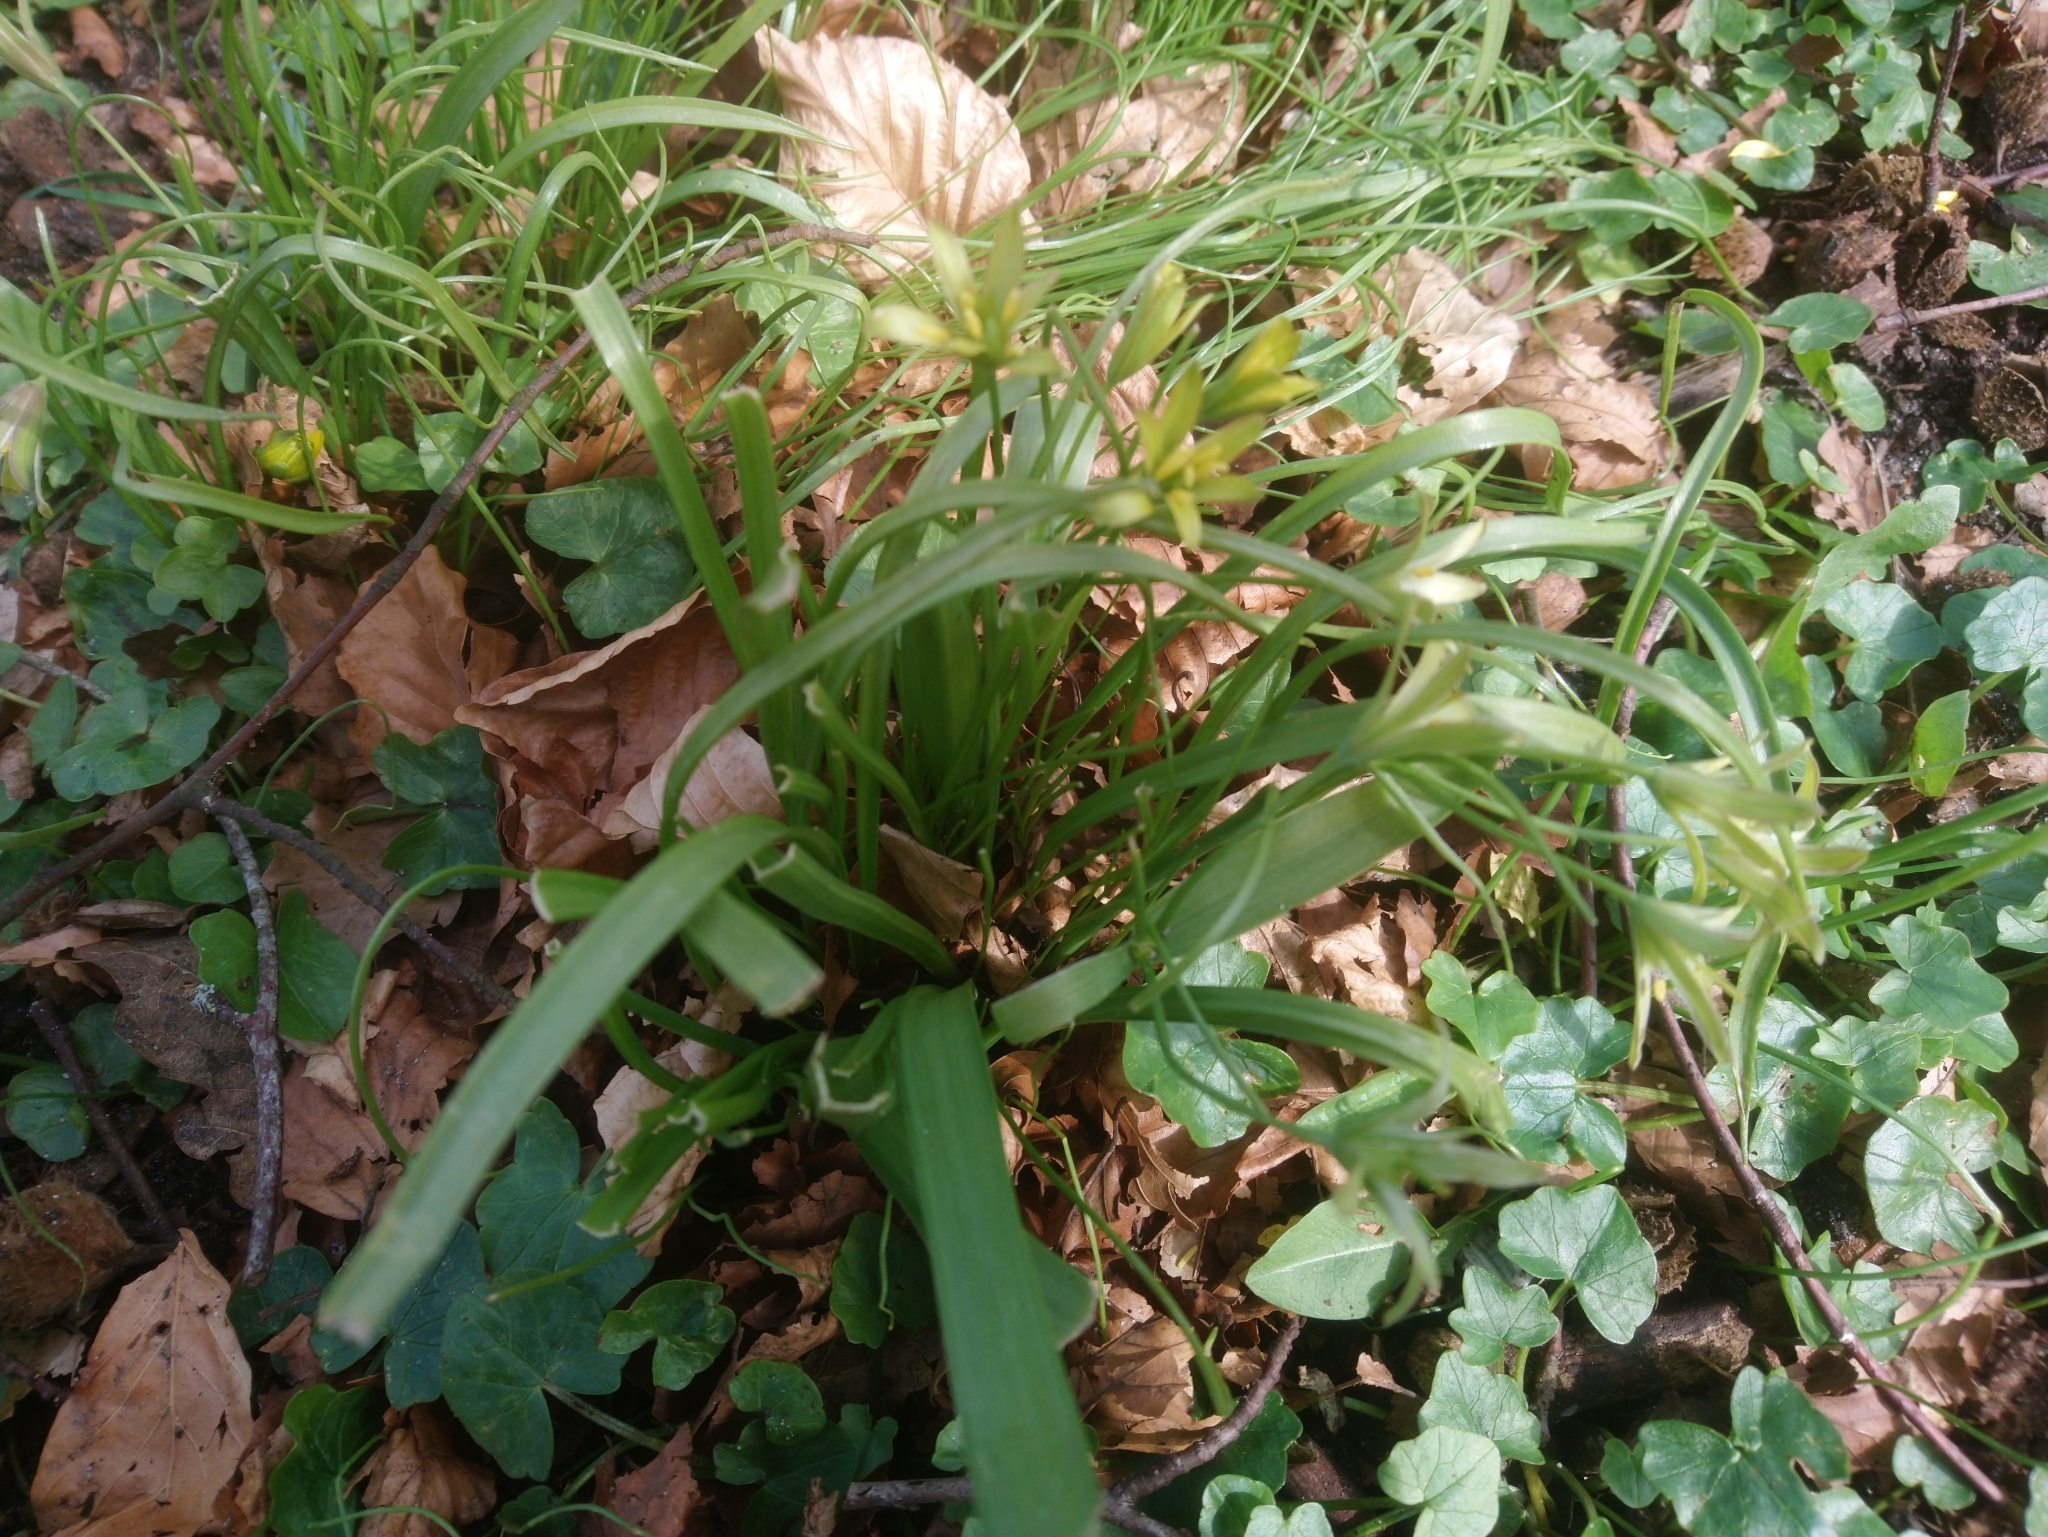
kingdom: Plantae
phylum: Tracheophyta
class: Liliopsida
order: Liliales
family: Liliaceae
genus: Gagea
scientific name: Gagea lutea
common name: Yellow star-of-bethlehem
